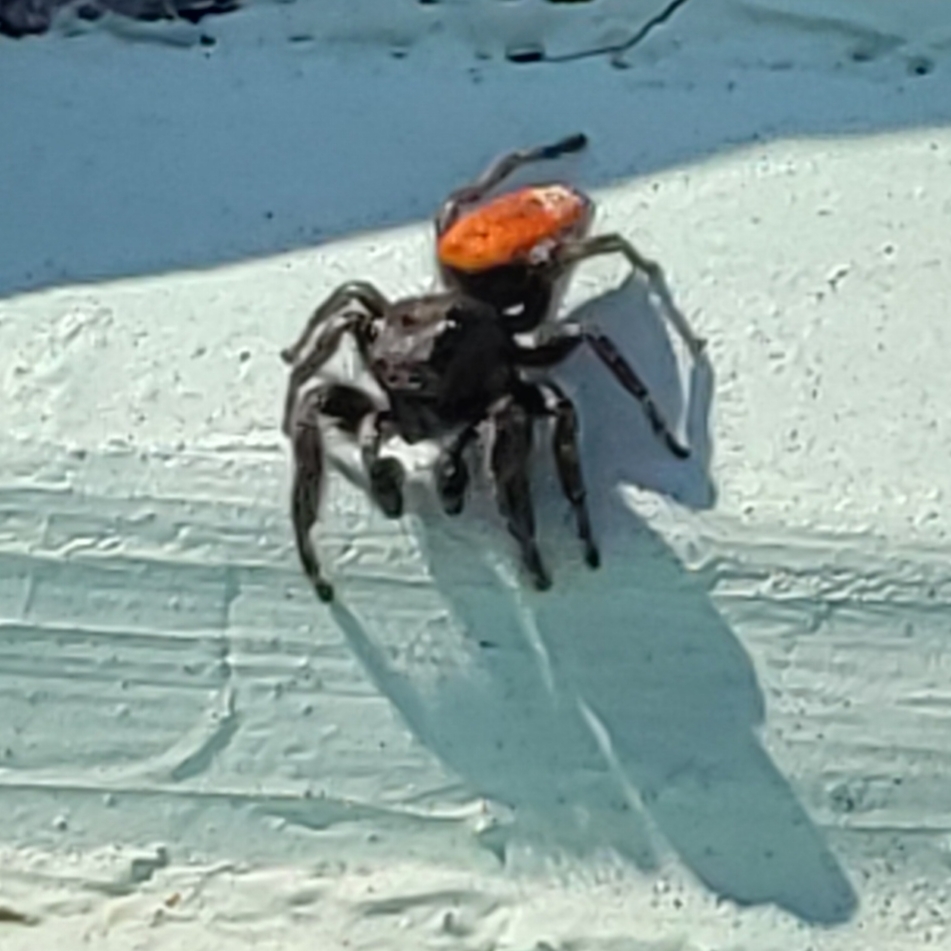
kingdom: Animalia
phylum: Arthropoda
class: Arachnida
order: Araneae
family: Salticidae
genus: Phidippus
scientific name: Phidippus johnsoni
